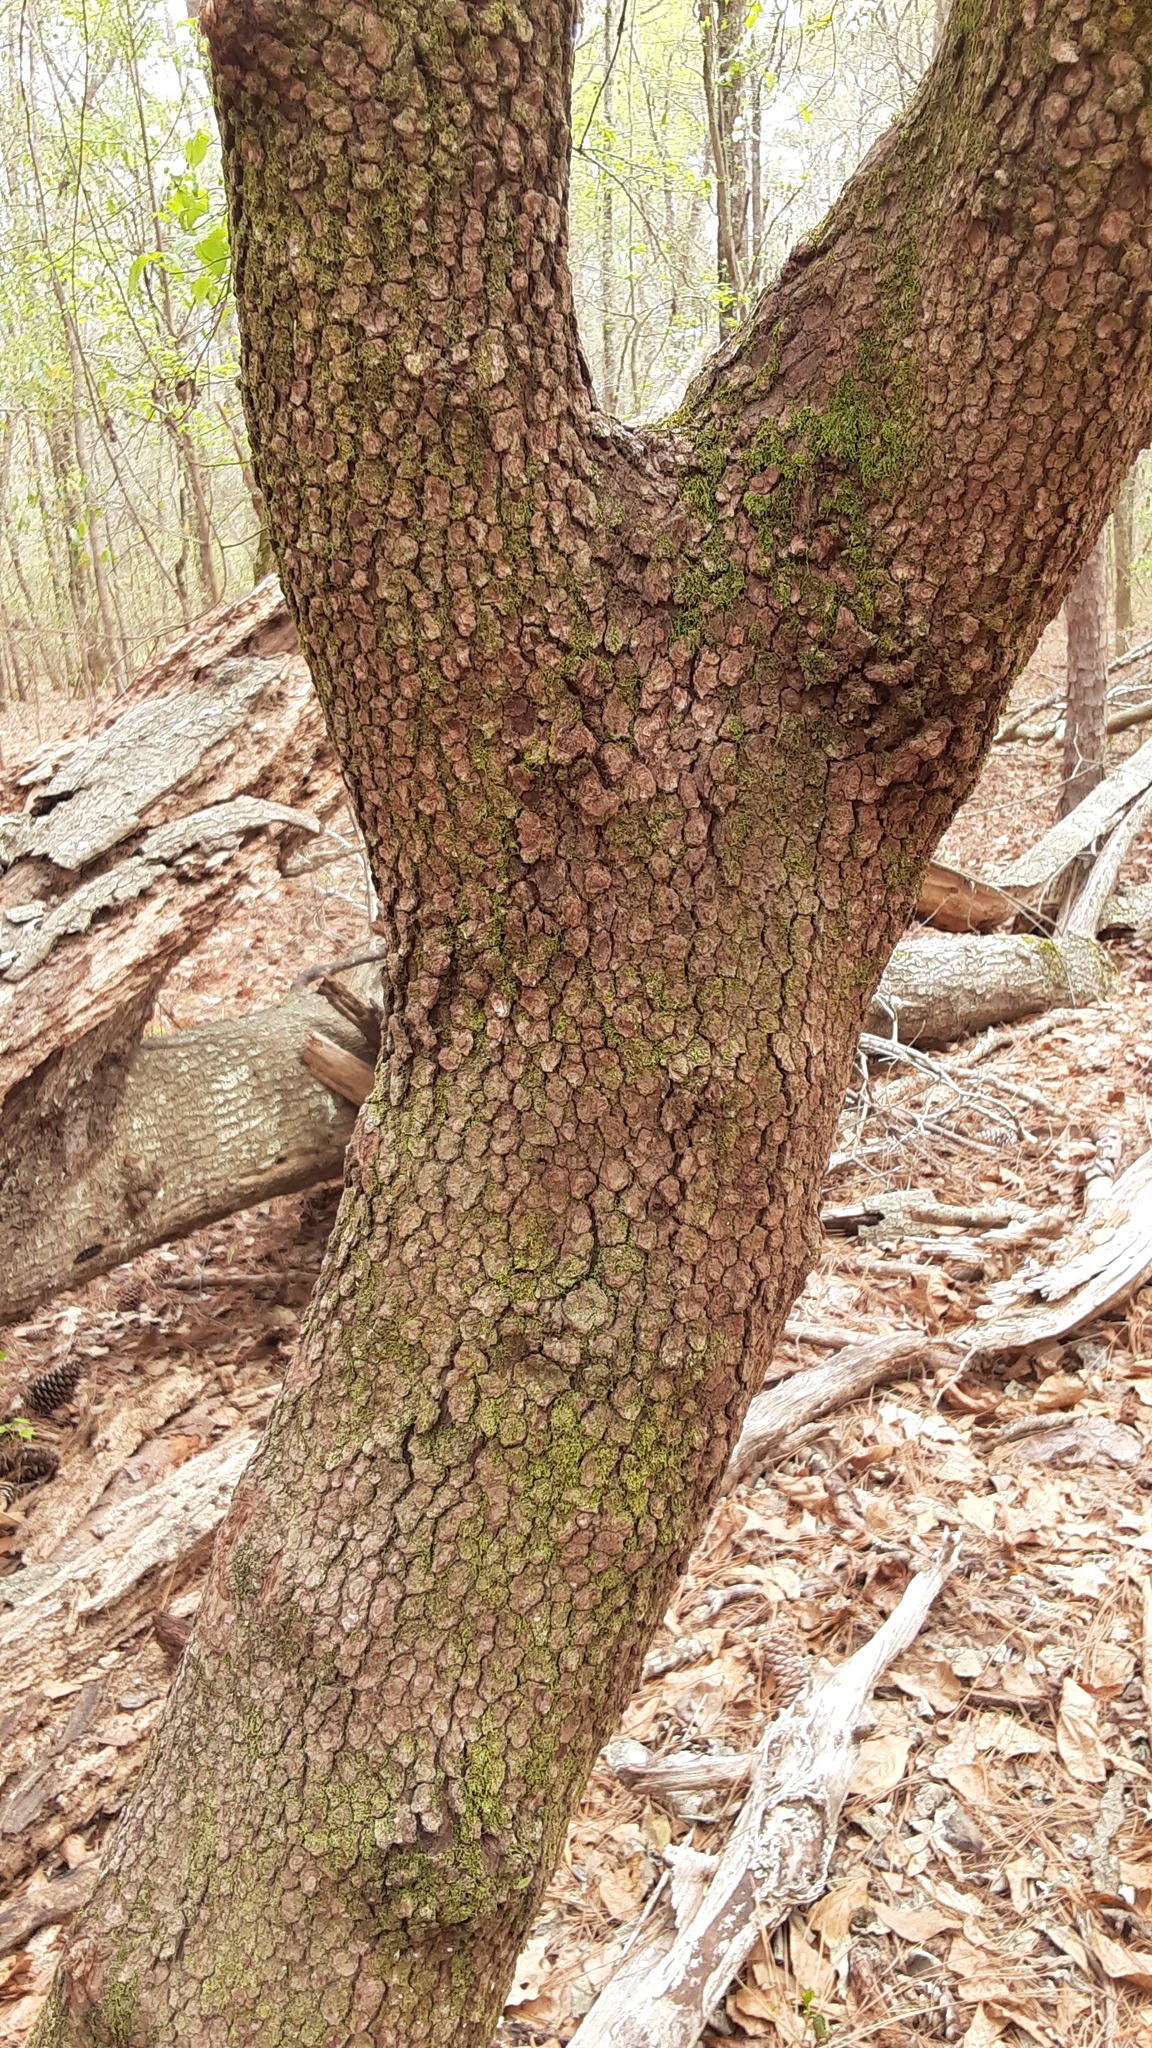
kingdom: Plantae
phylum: Tracheophyta
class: Magnoliopsida
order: Cornales
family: Cornaceae
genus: Cornus
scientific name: Cornus florida
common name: Flowering dogwood
